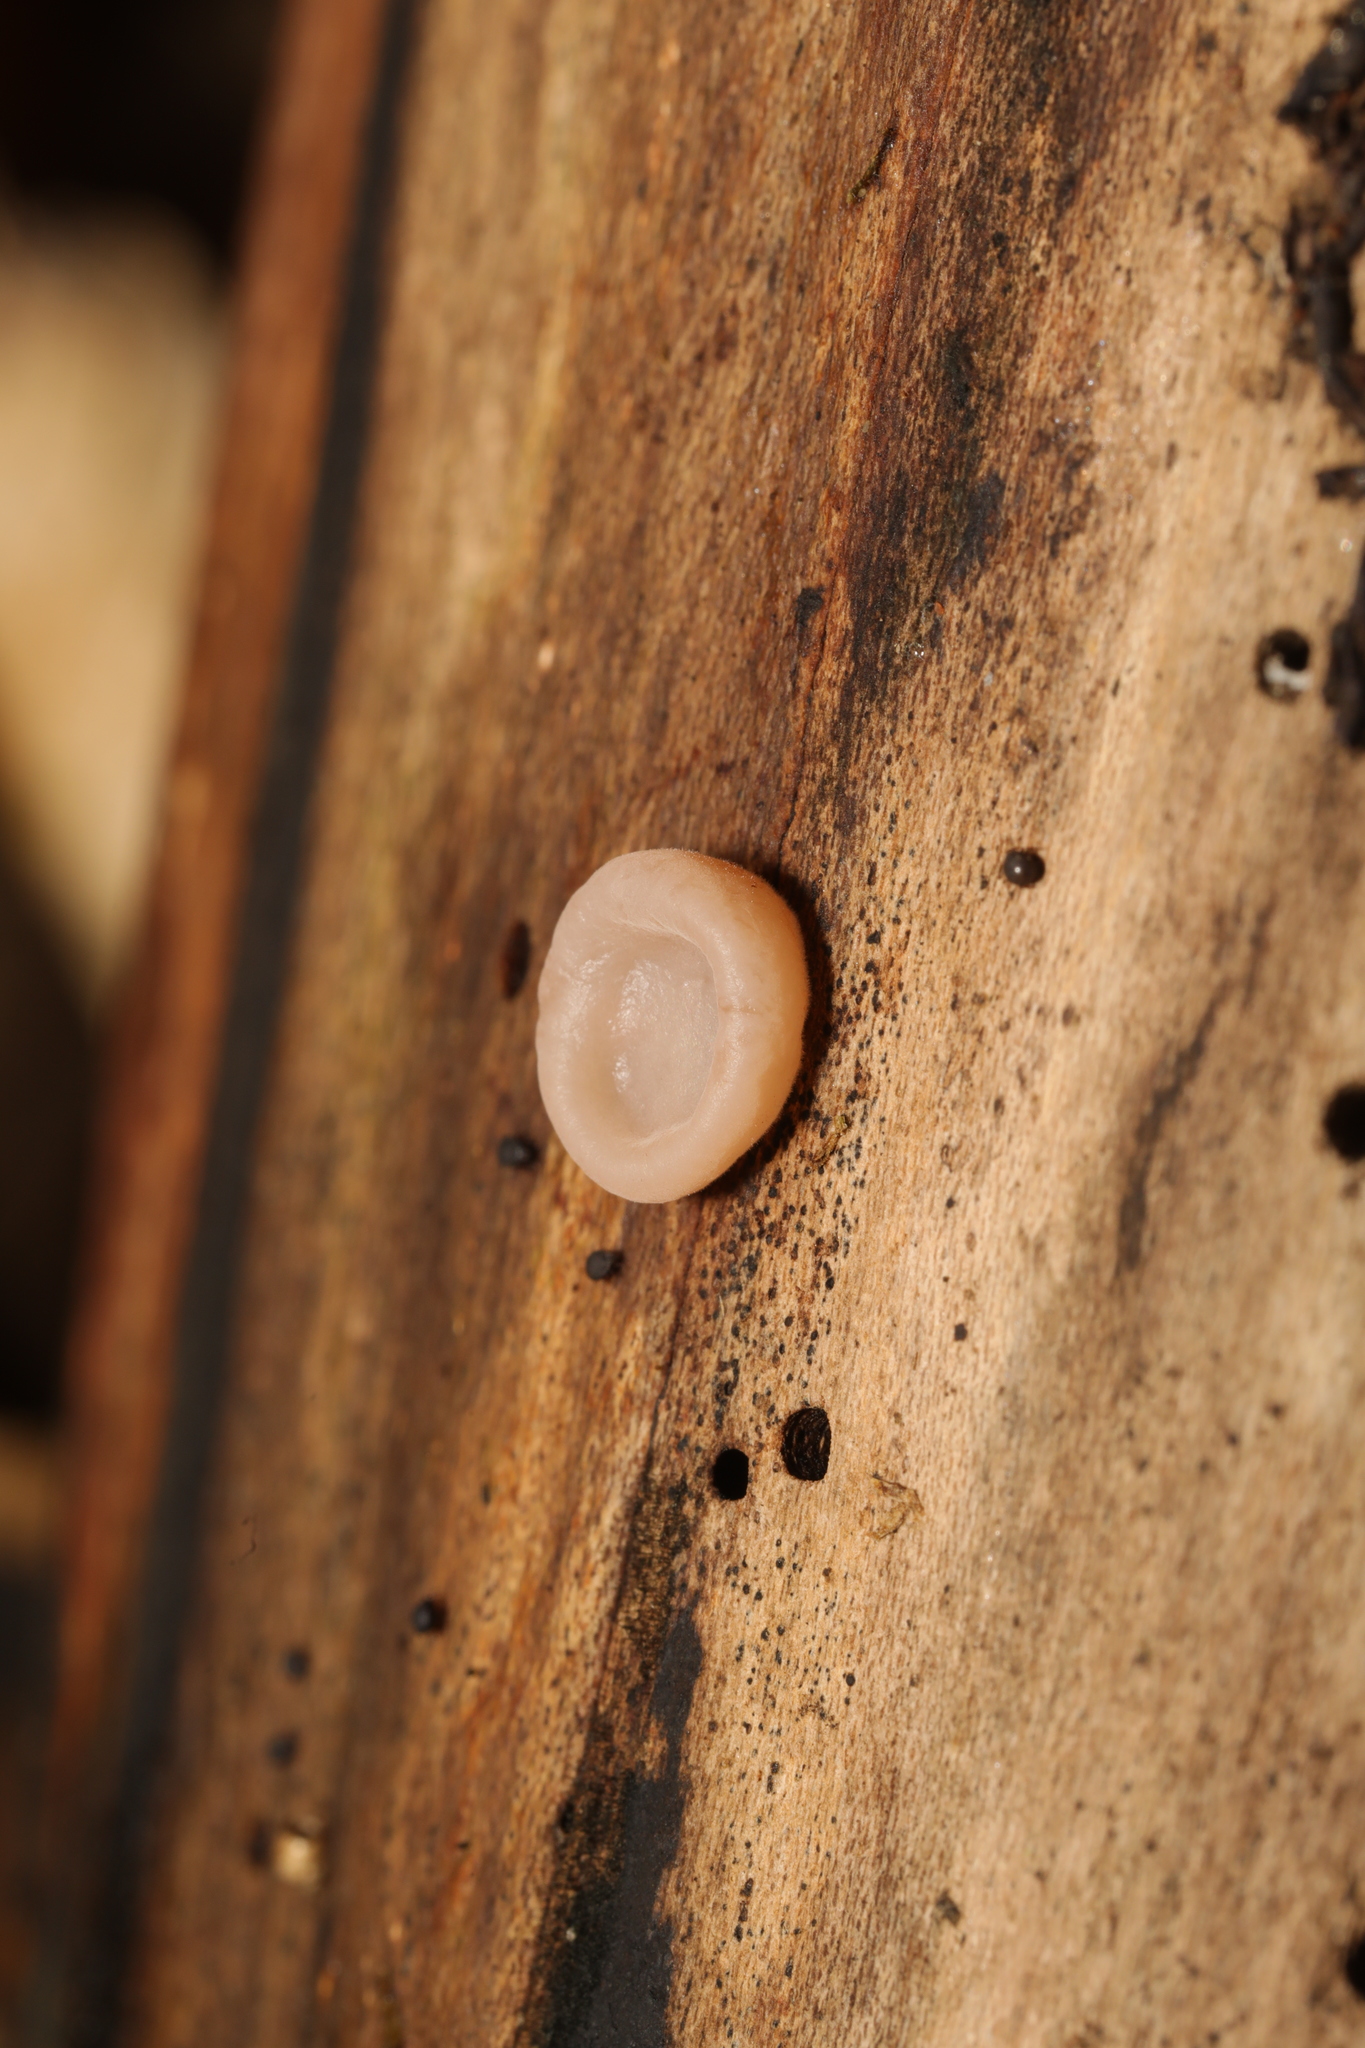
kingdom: Fungi
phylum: Basidiomycota
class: Agaricomycetes
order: Auriculariales
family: Auriculariaceae
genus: Auricularia
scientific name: Auricularia auricula-judae
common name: Jelly ear
